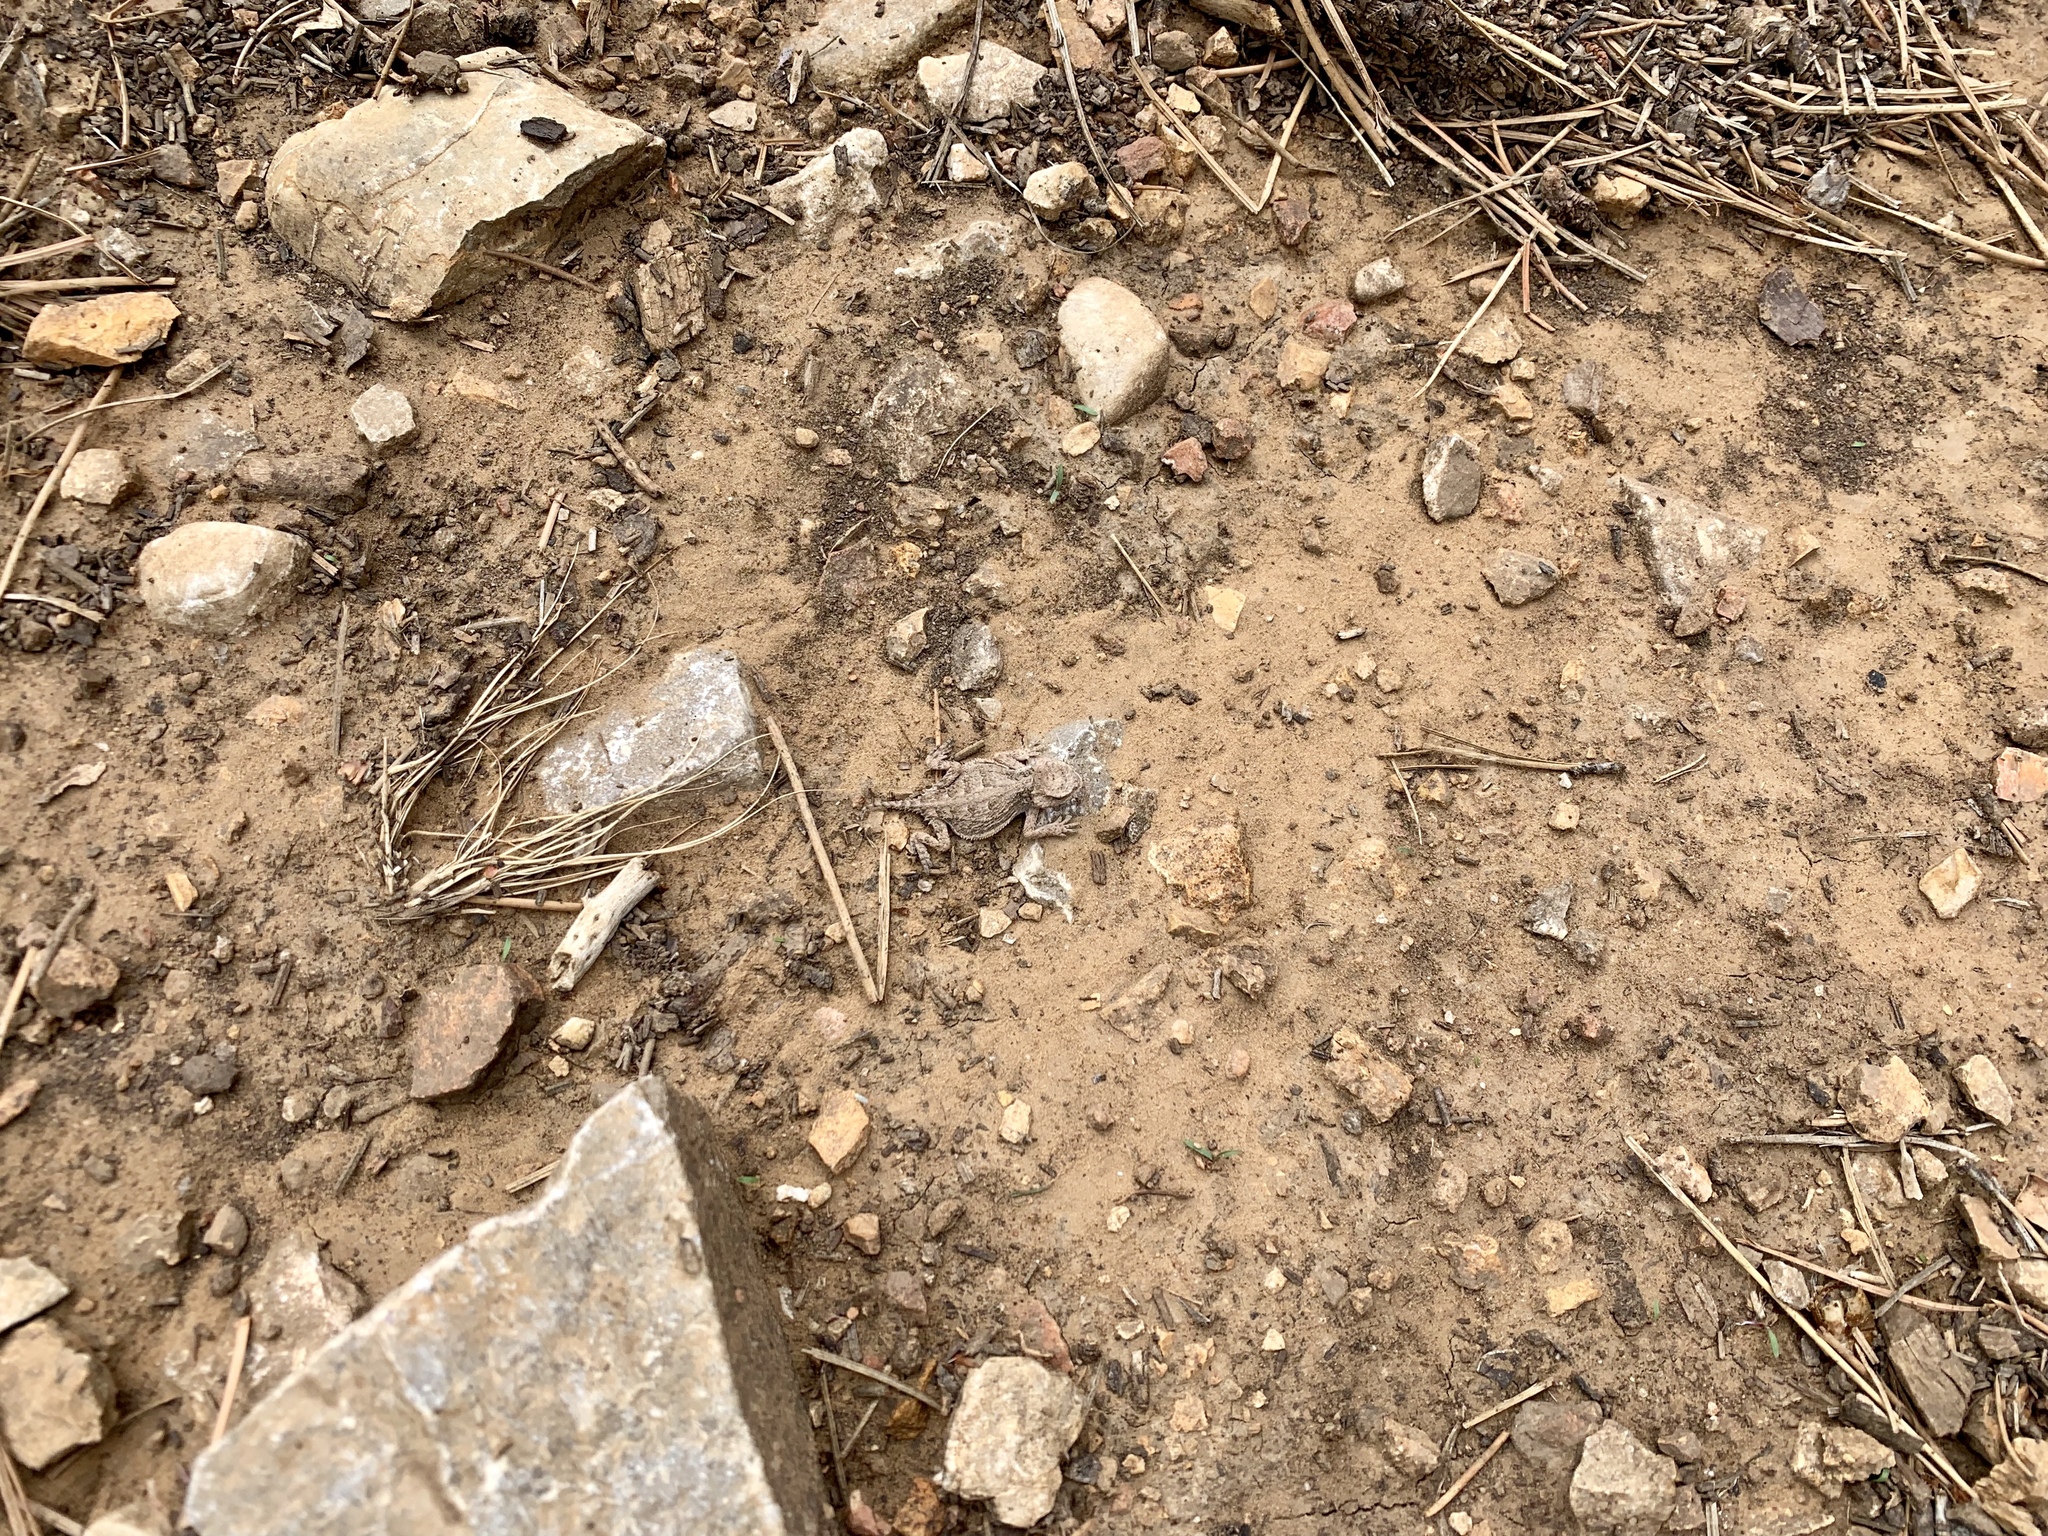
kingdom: Animalia
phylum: Chordata
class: Squamata
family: Phrynosomatidae
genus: Phrynosoma
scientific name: Phrynosoma hernandesi
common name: Greater short-horned lizard
